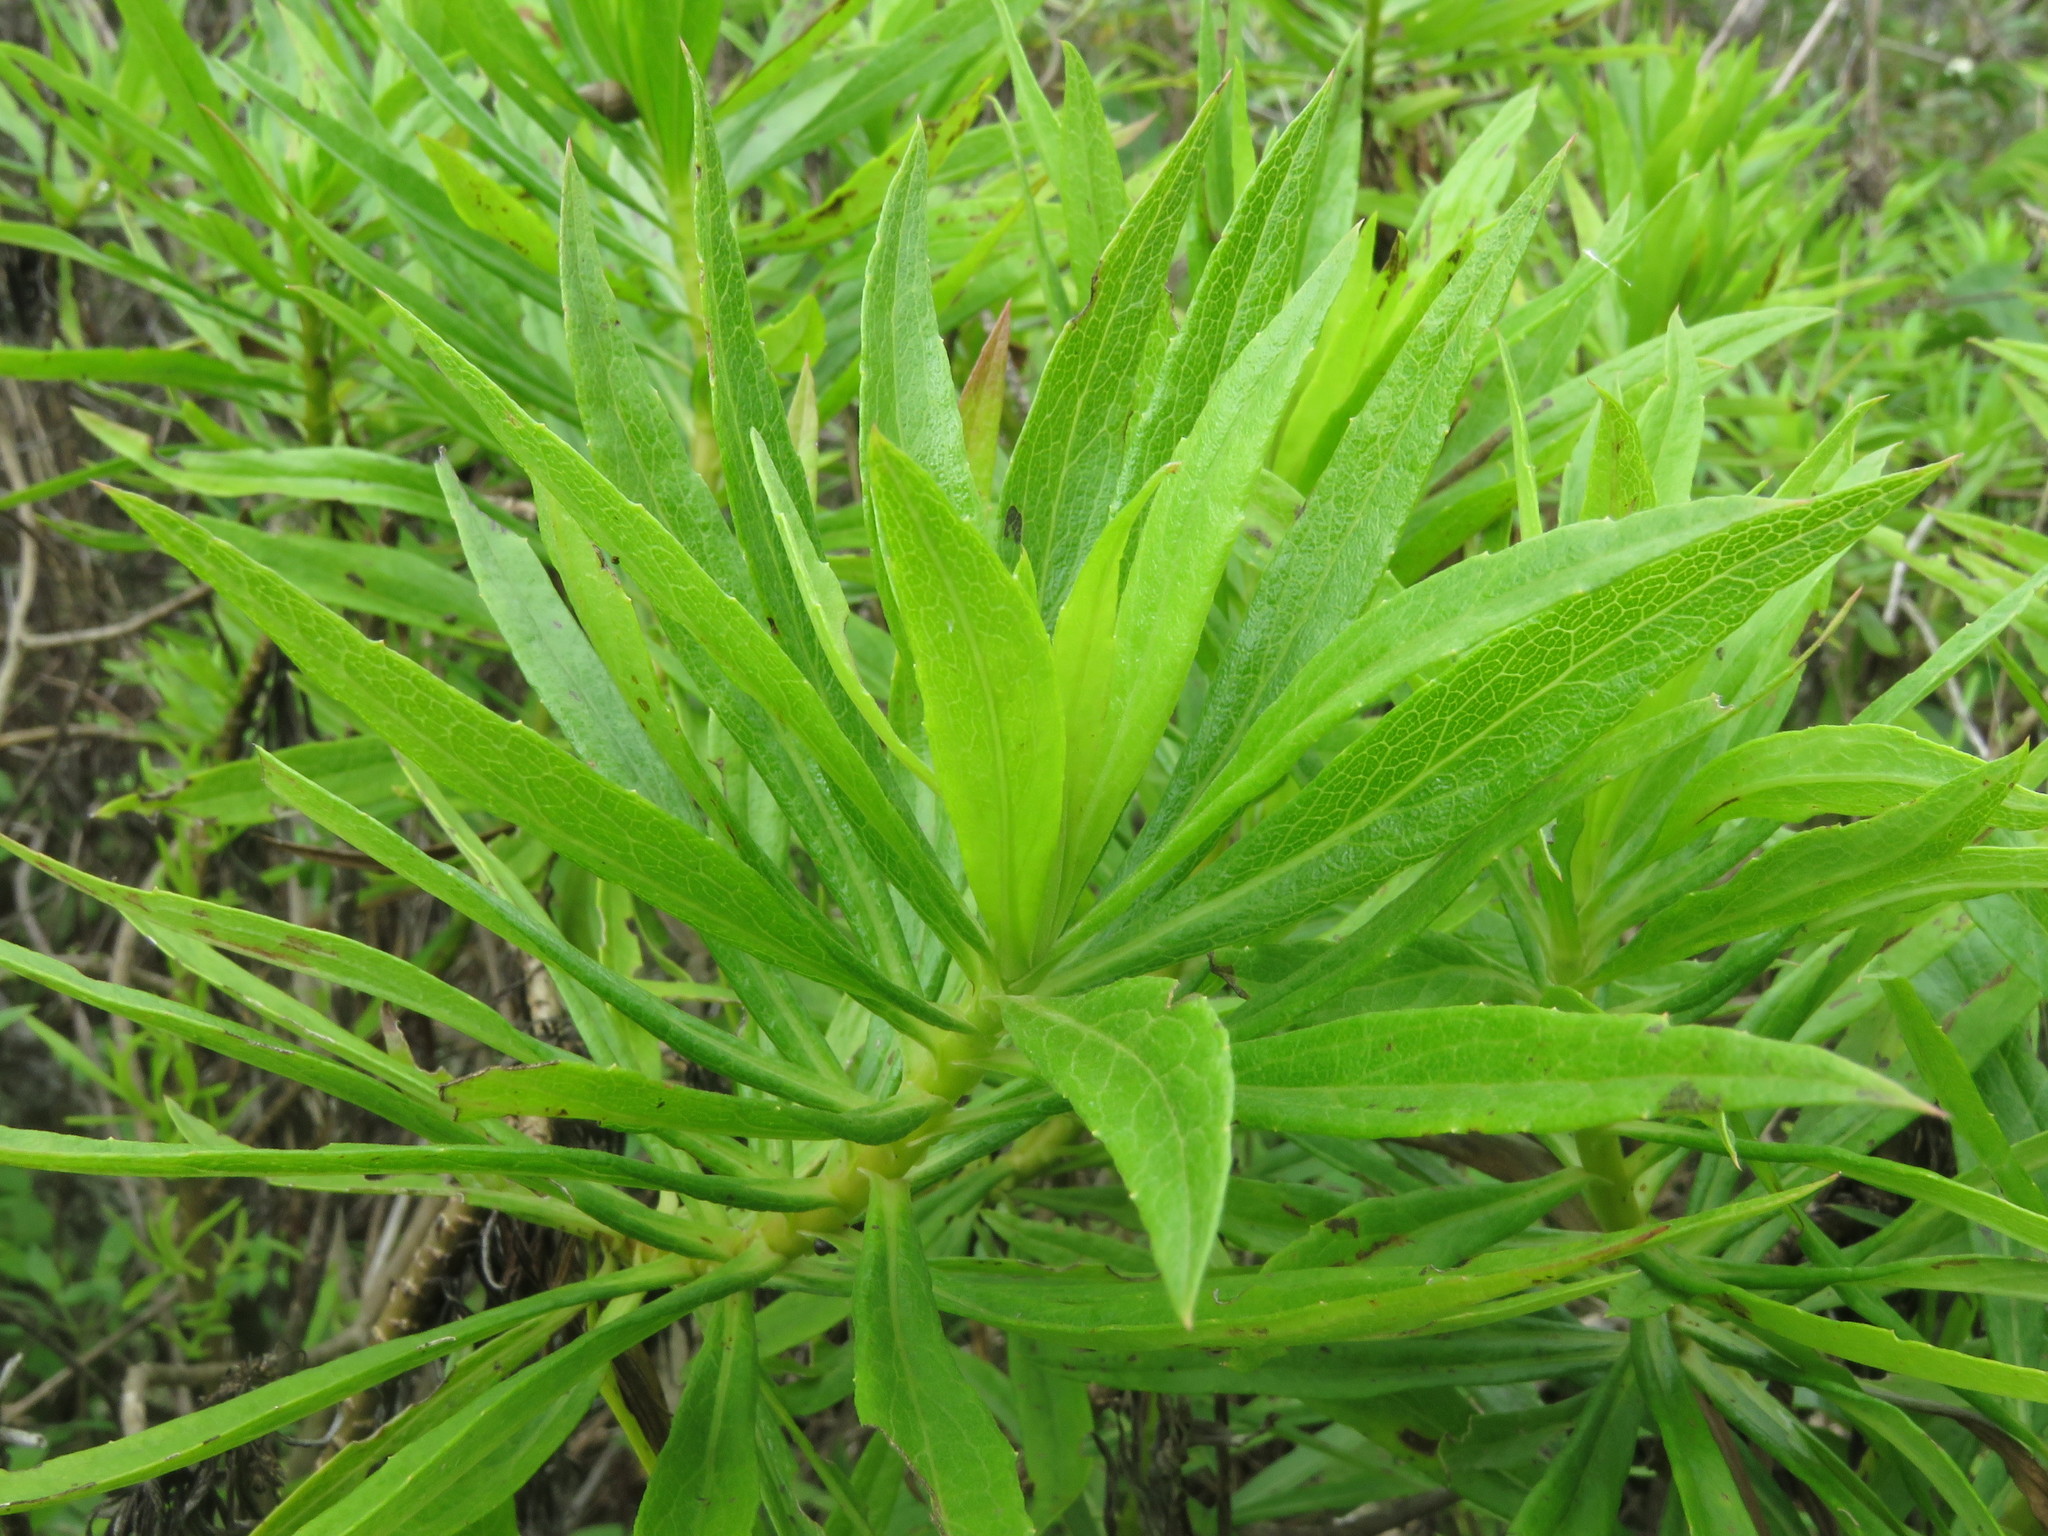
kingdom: Plantae
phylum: Tracheophyta
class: Magnoliopsida
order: Asterales
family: Asteraceae
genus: Erigeron
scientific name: Erigeron lancifolius
